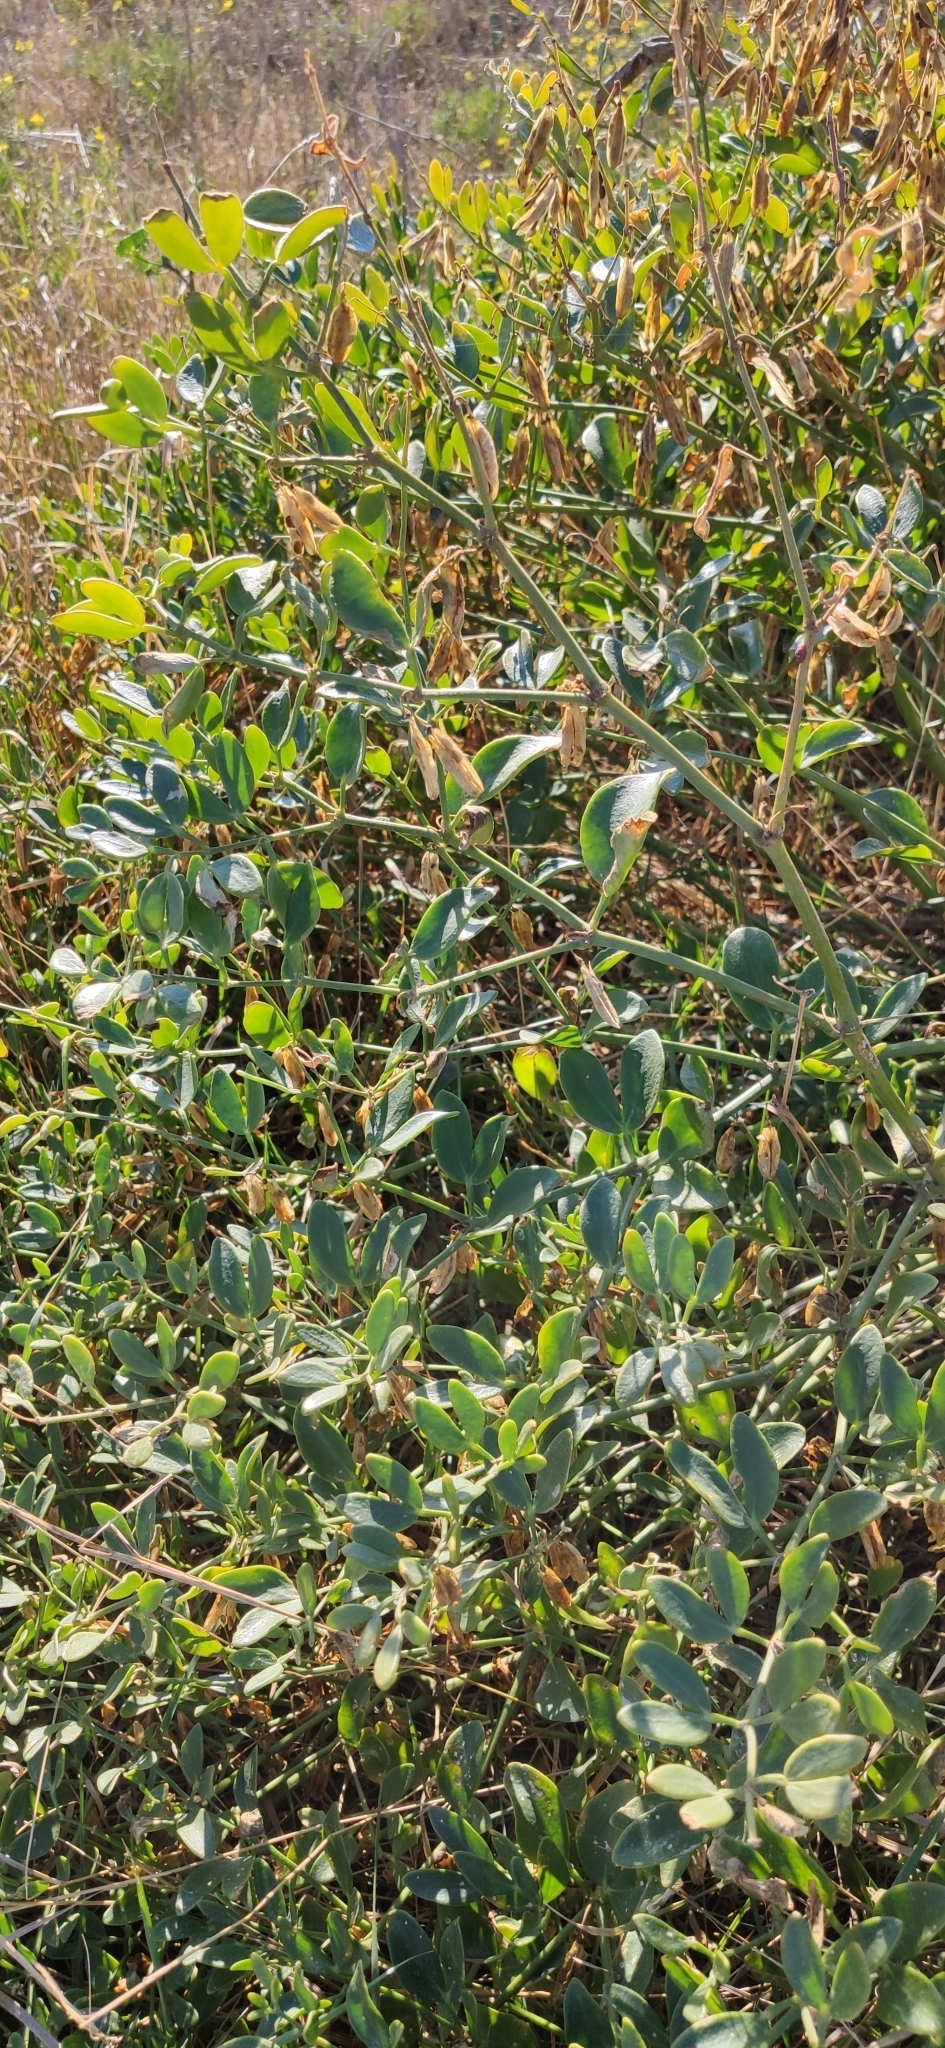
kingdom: Plantae
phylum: Tracheophyta
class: Magnoliopsida
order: Zygophyllales
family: Zygophyllaceae
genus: Zygophyllum
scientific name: Zygophyllum fabago
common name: Syrian beancaper
